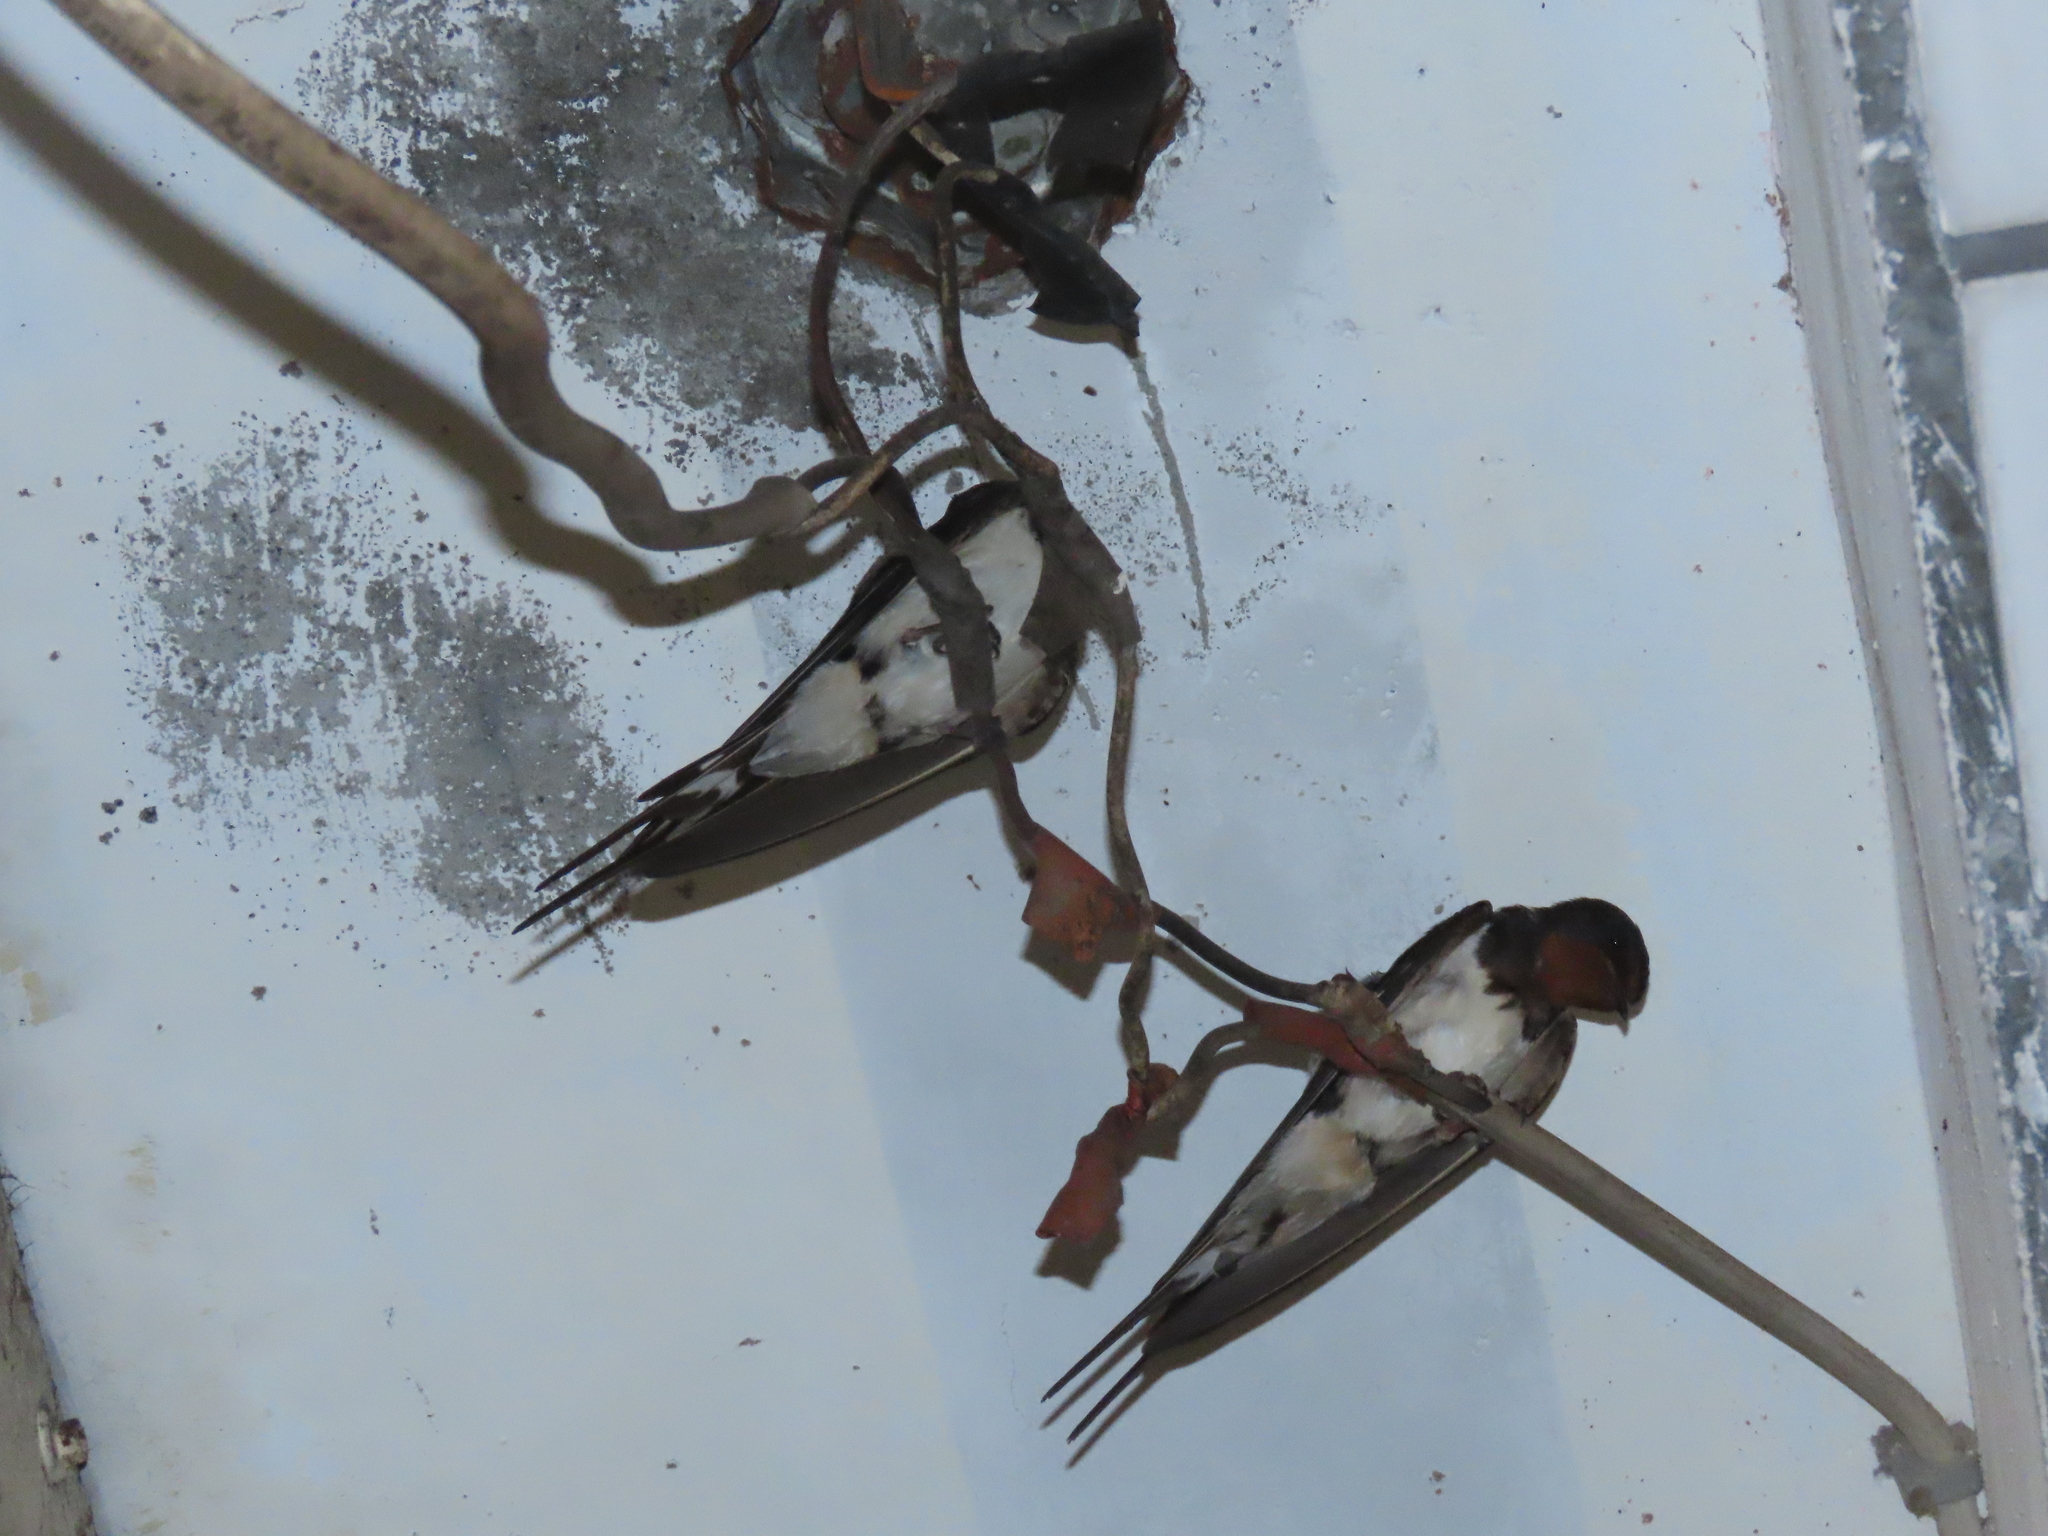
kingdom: Animalia
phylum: Chordata
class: Aves
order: Passeriformes
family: Hirundinidae
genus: Hirundo
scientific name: Hirundo rustica
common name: Barn swallow
